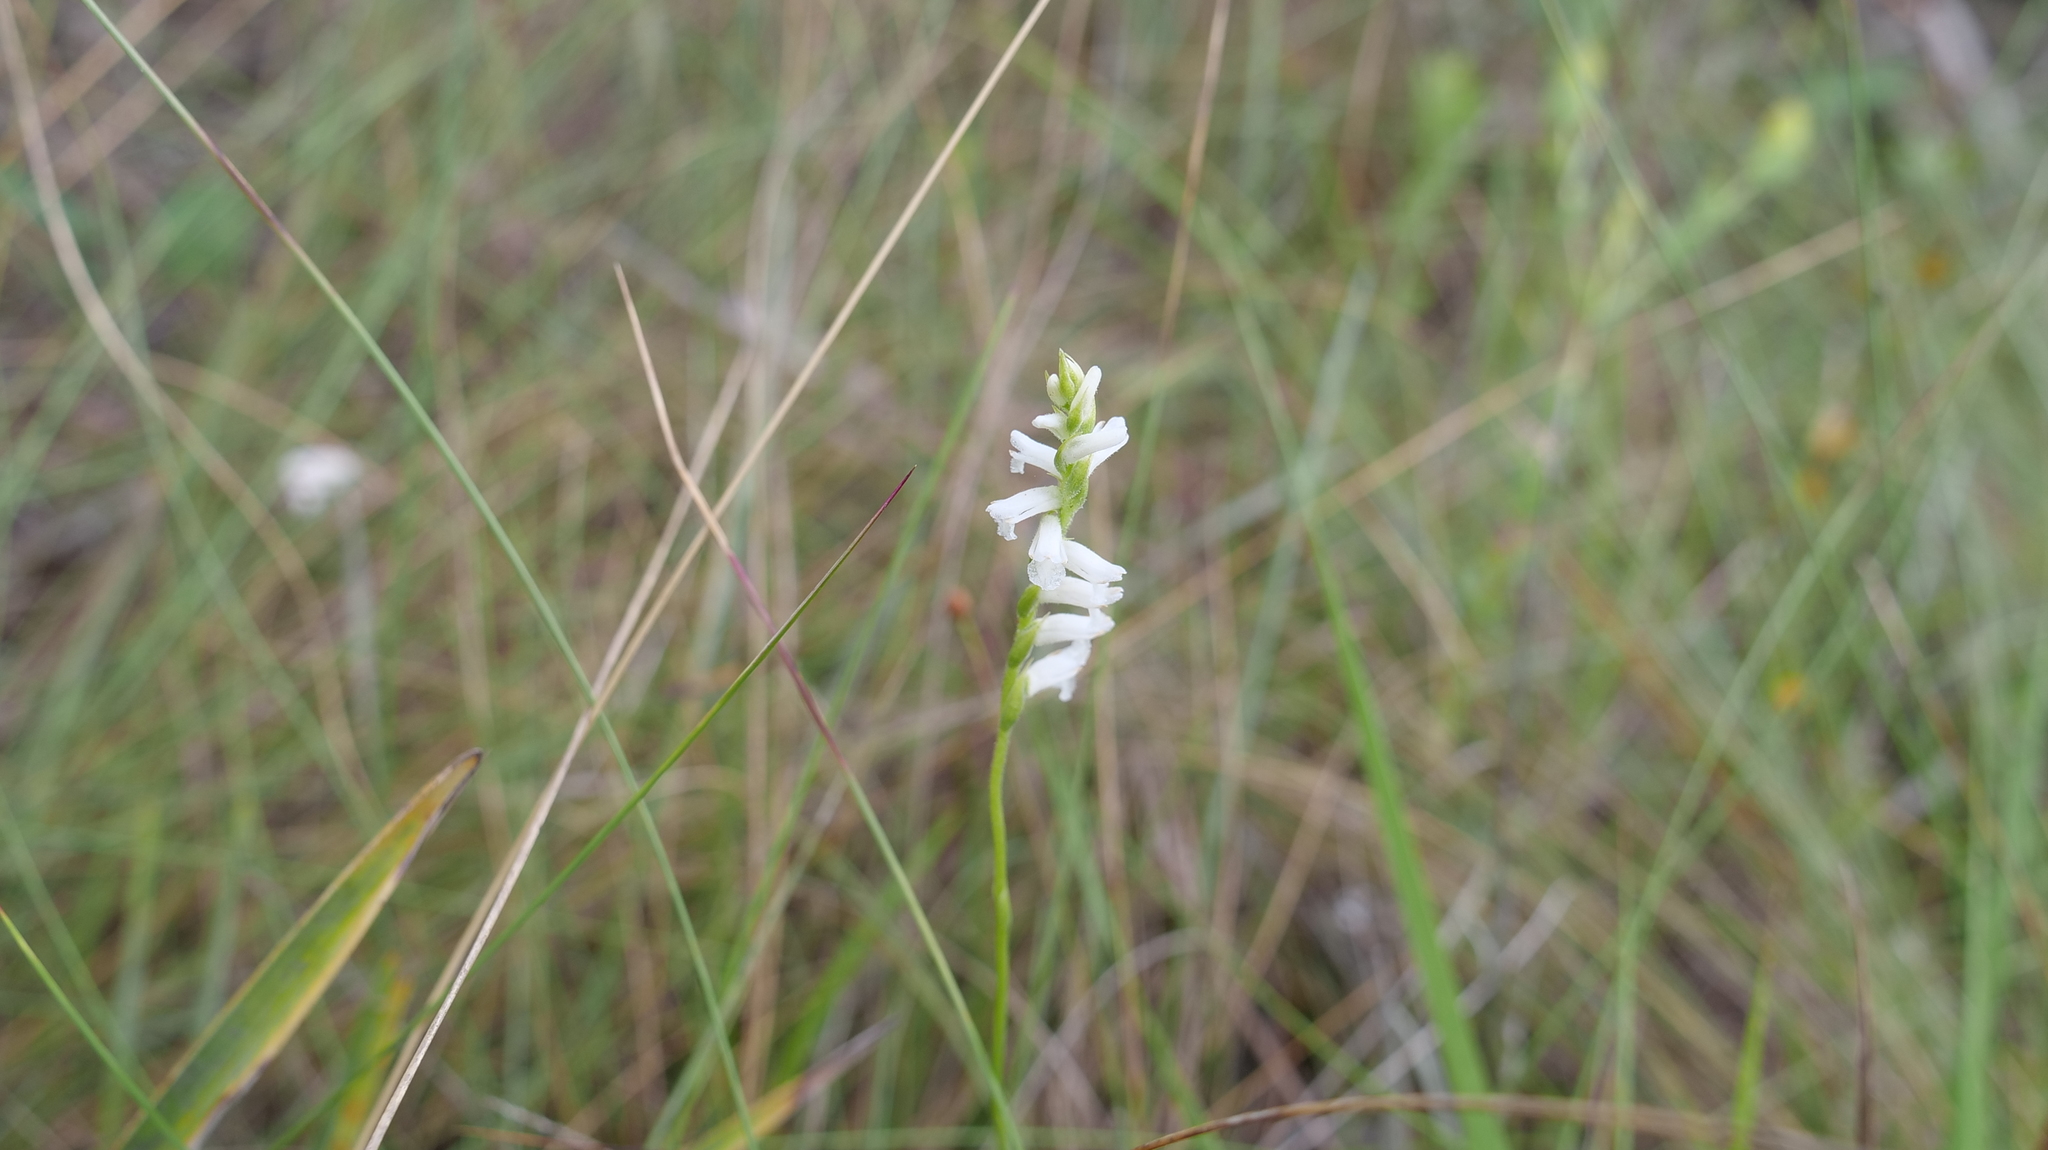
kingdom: Plantae
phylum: Tracheophyta
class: Liliopsida
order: Asparagales
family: Orchidaceae
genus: Spiranthes
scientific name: Spiranthes praecox
